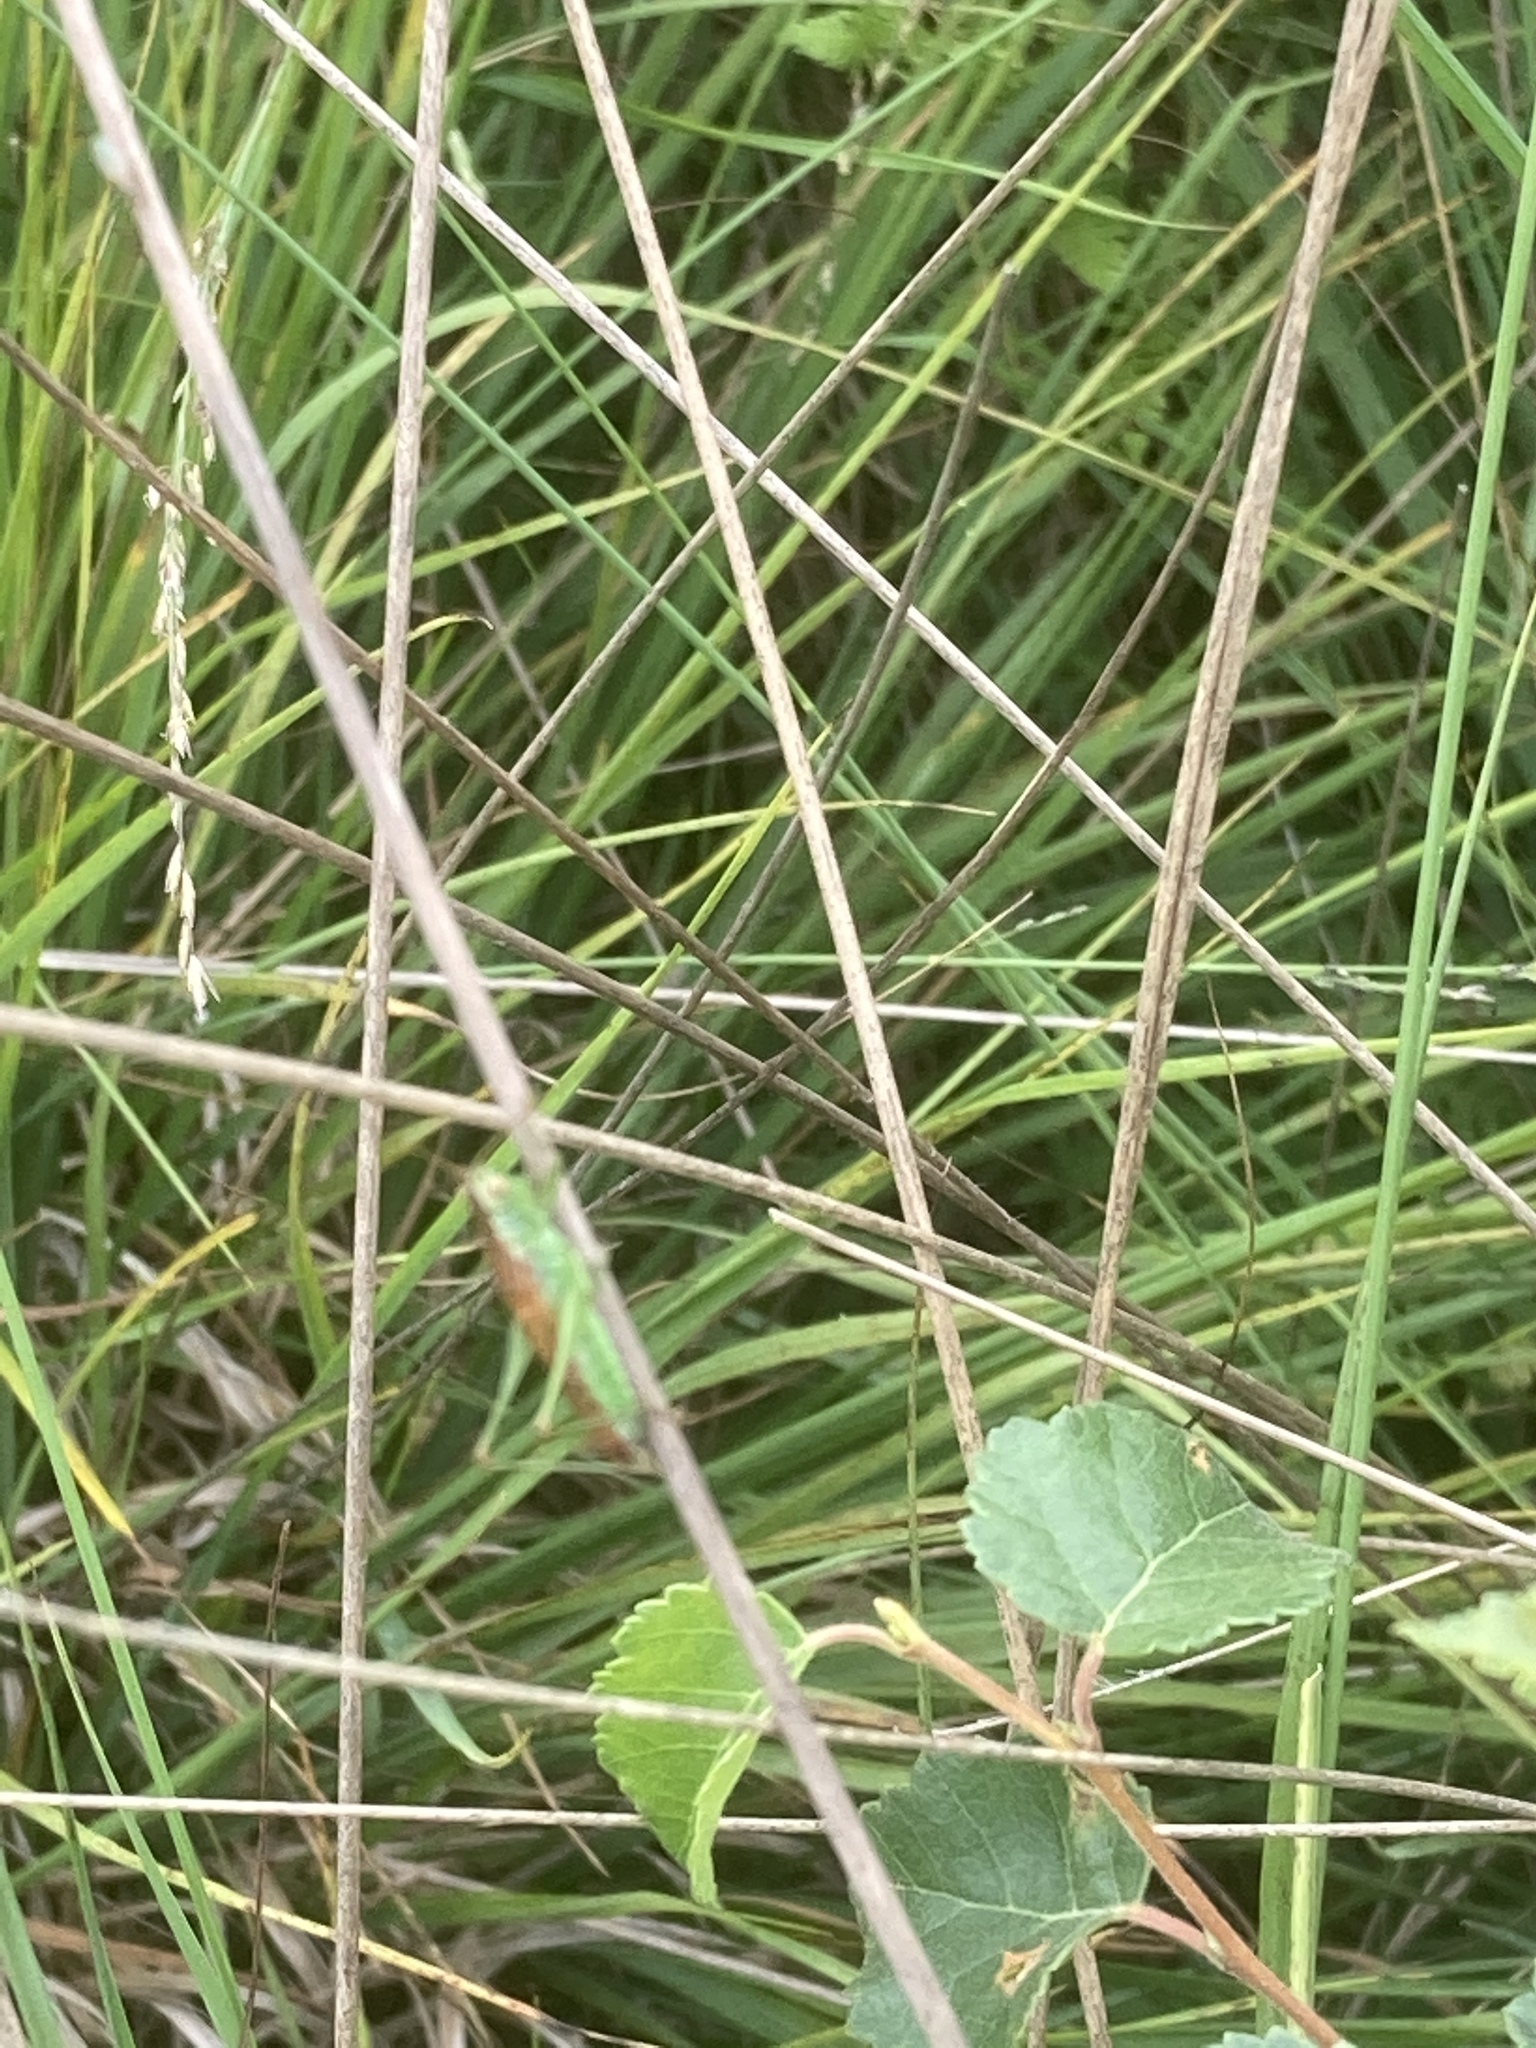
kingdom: Animalia
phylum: Arthropoda
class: Insecta
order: Orthoptera
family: Tettigoniidae
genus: Conocephalus
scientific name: Conocephalus dorsalis
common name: Short-winged conehead
